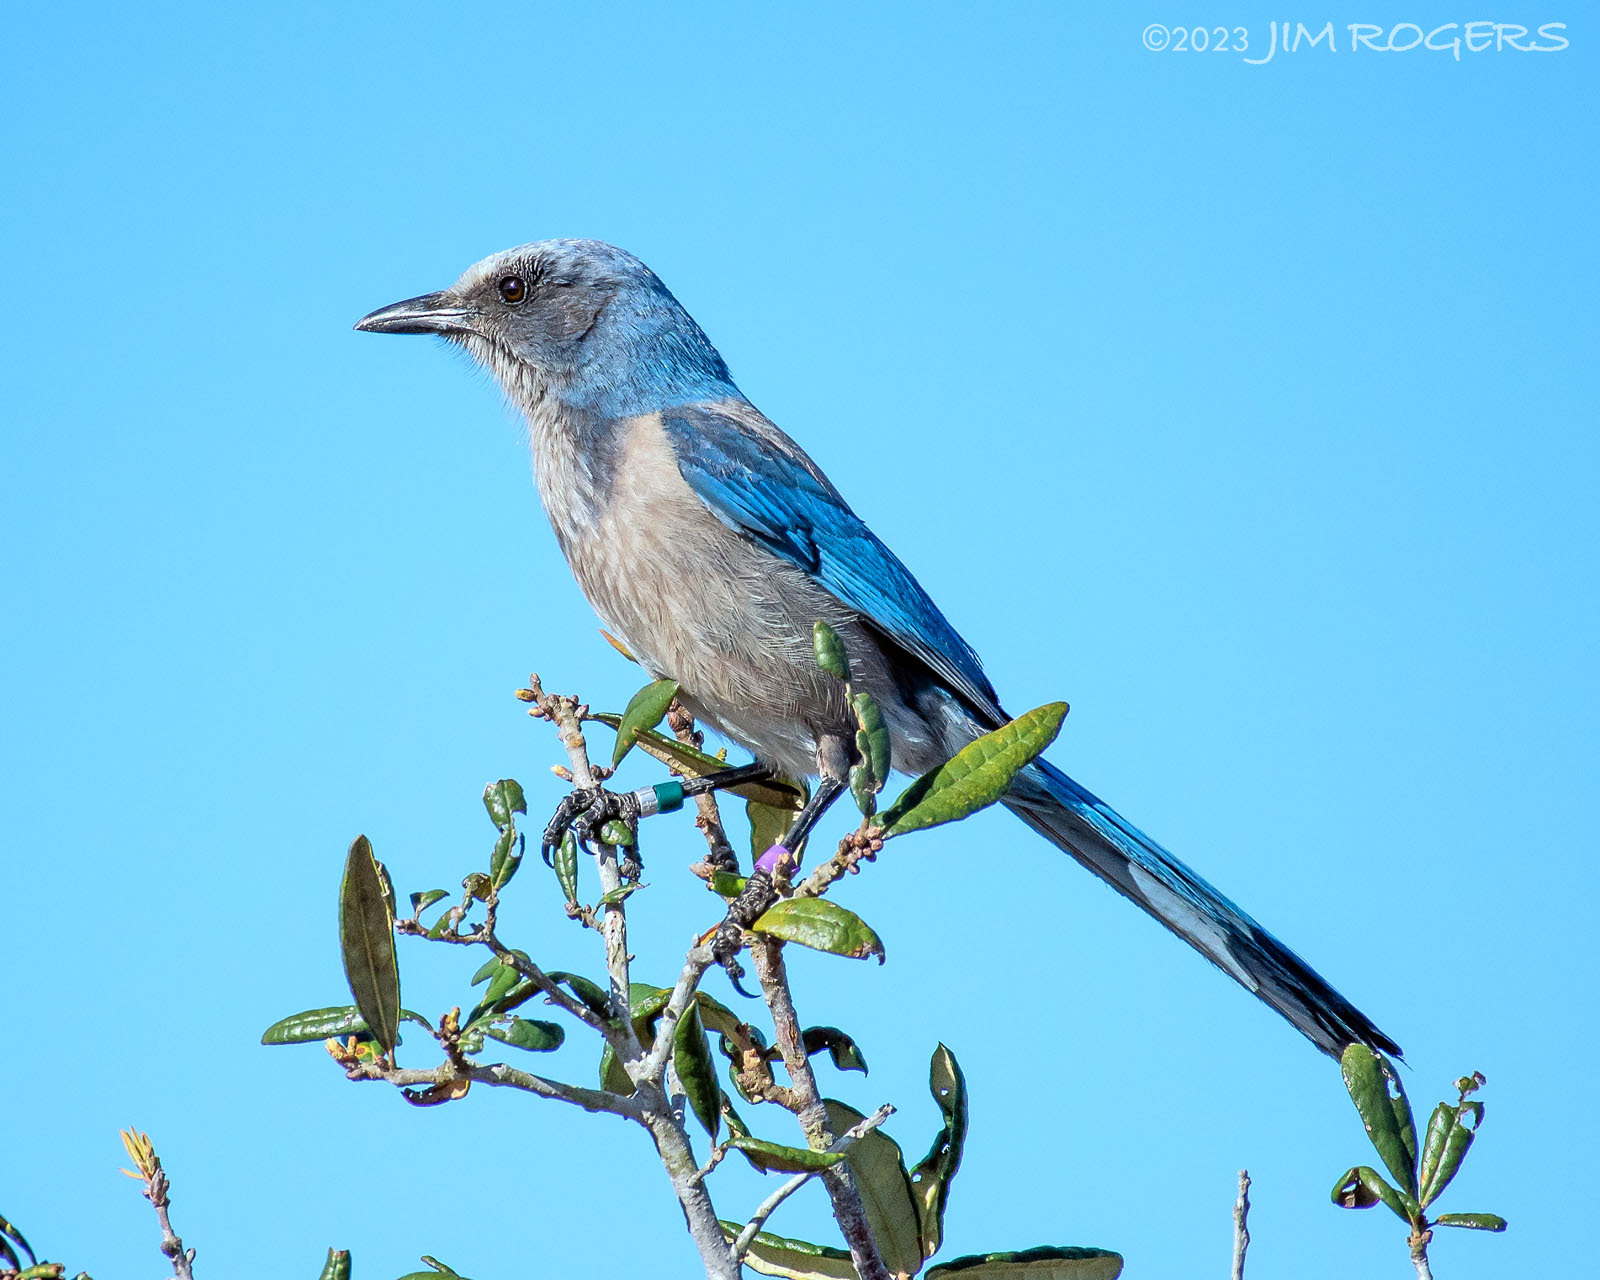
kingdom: Animalia
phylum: Chordata
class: Aves
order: Passeriformes
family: Corvidae
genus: Aphelocoma
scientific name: Aphelocoma coerulescens
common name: Florida scrub jay
